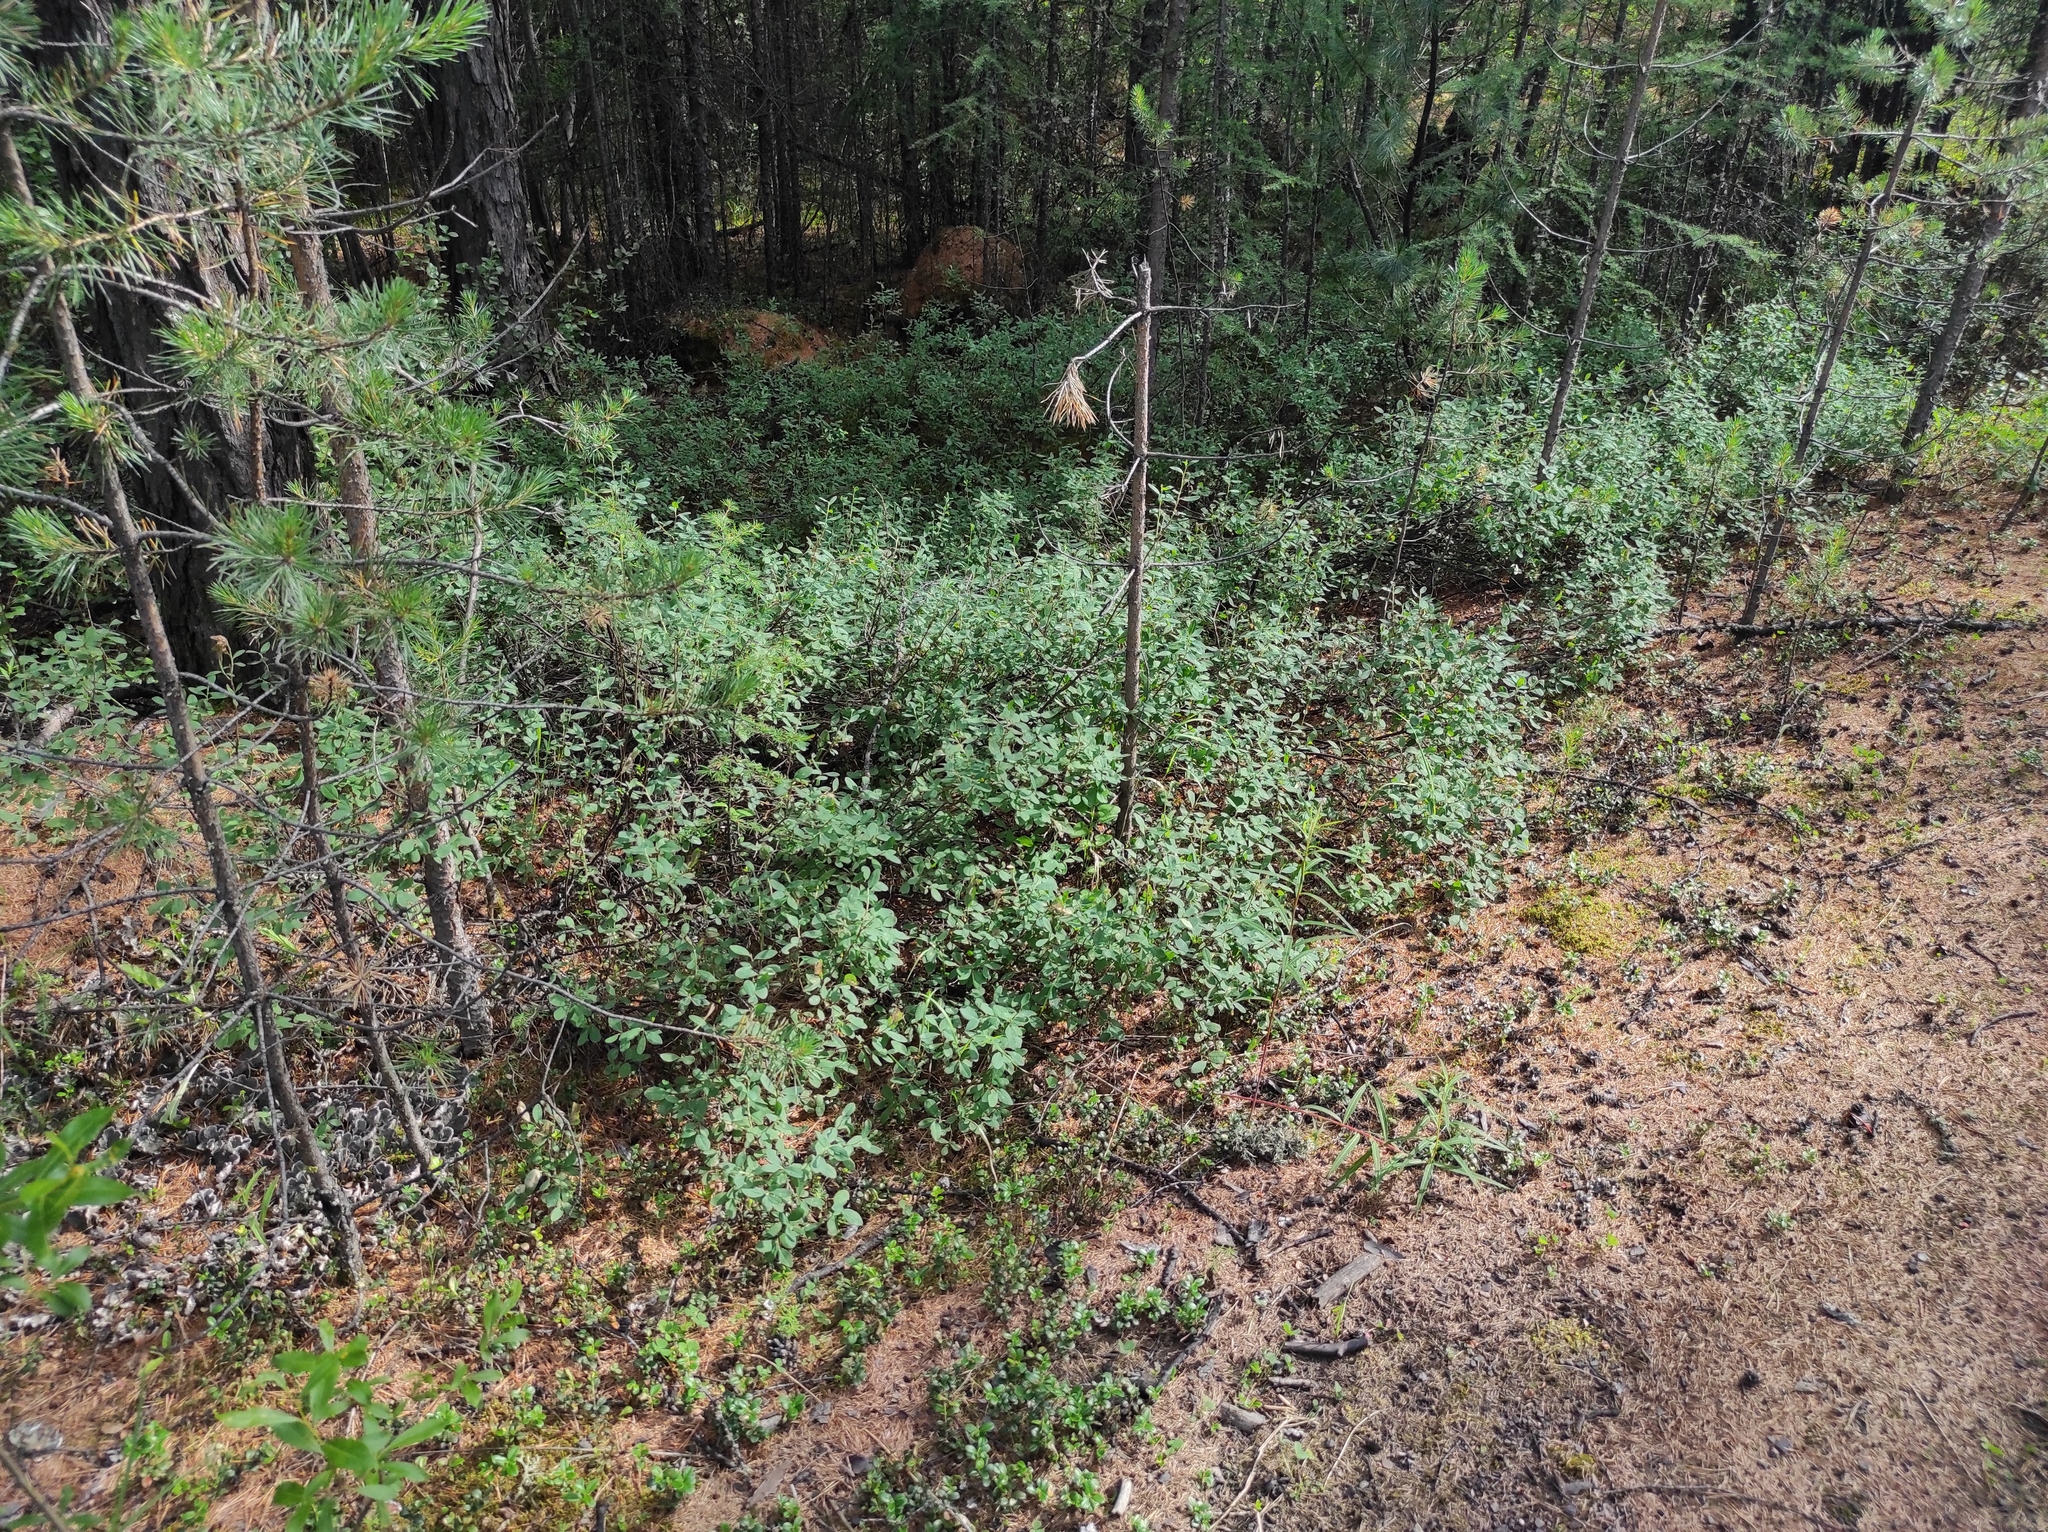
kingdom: Plantae
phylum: Tracheophyta
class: Magnoliopsida
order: Ericales
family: Ericaceae
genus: Vaccinium
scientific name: Vaccinium uliginosum
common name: Bog bilberry
